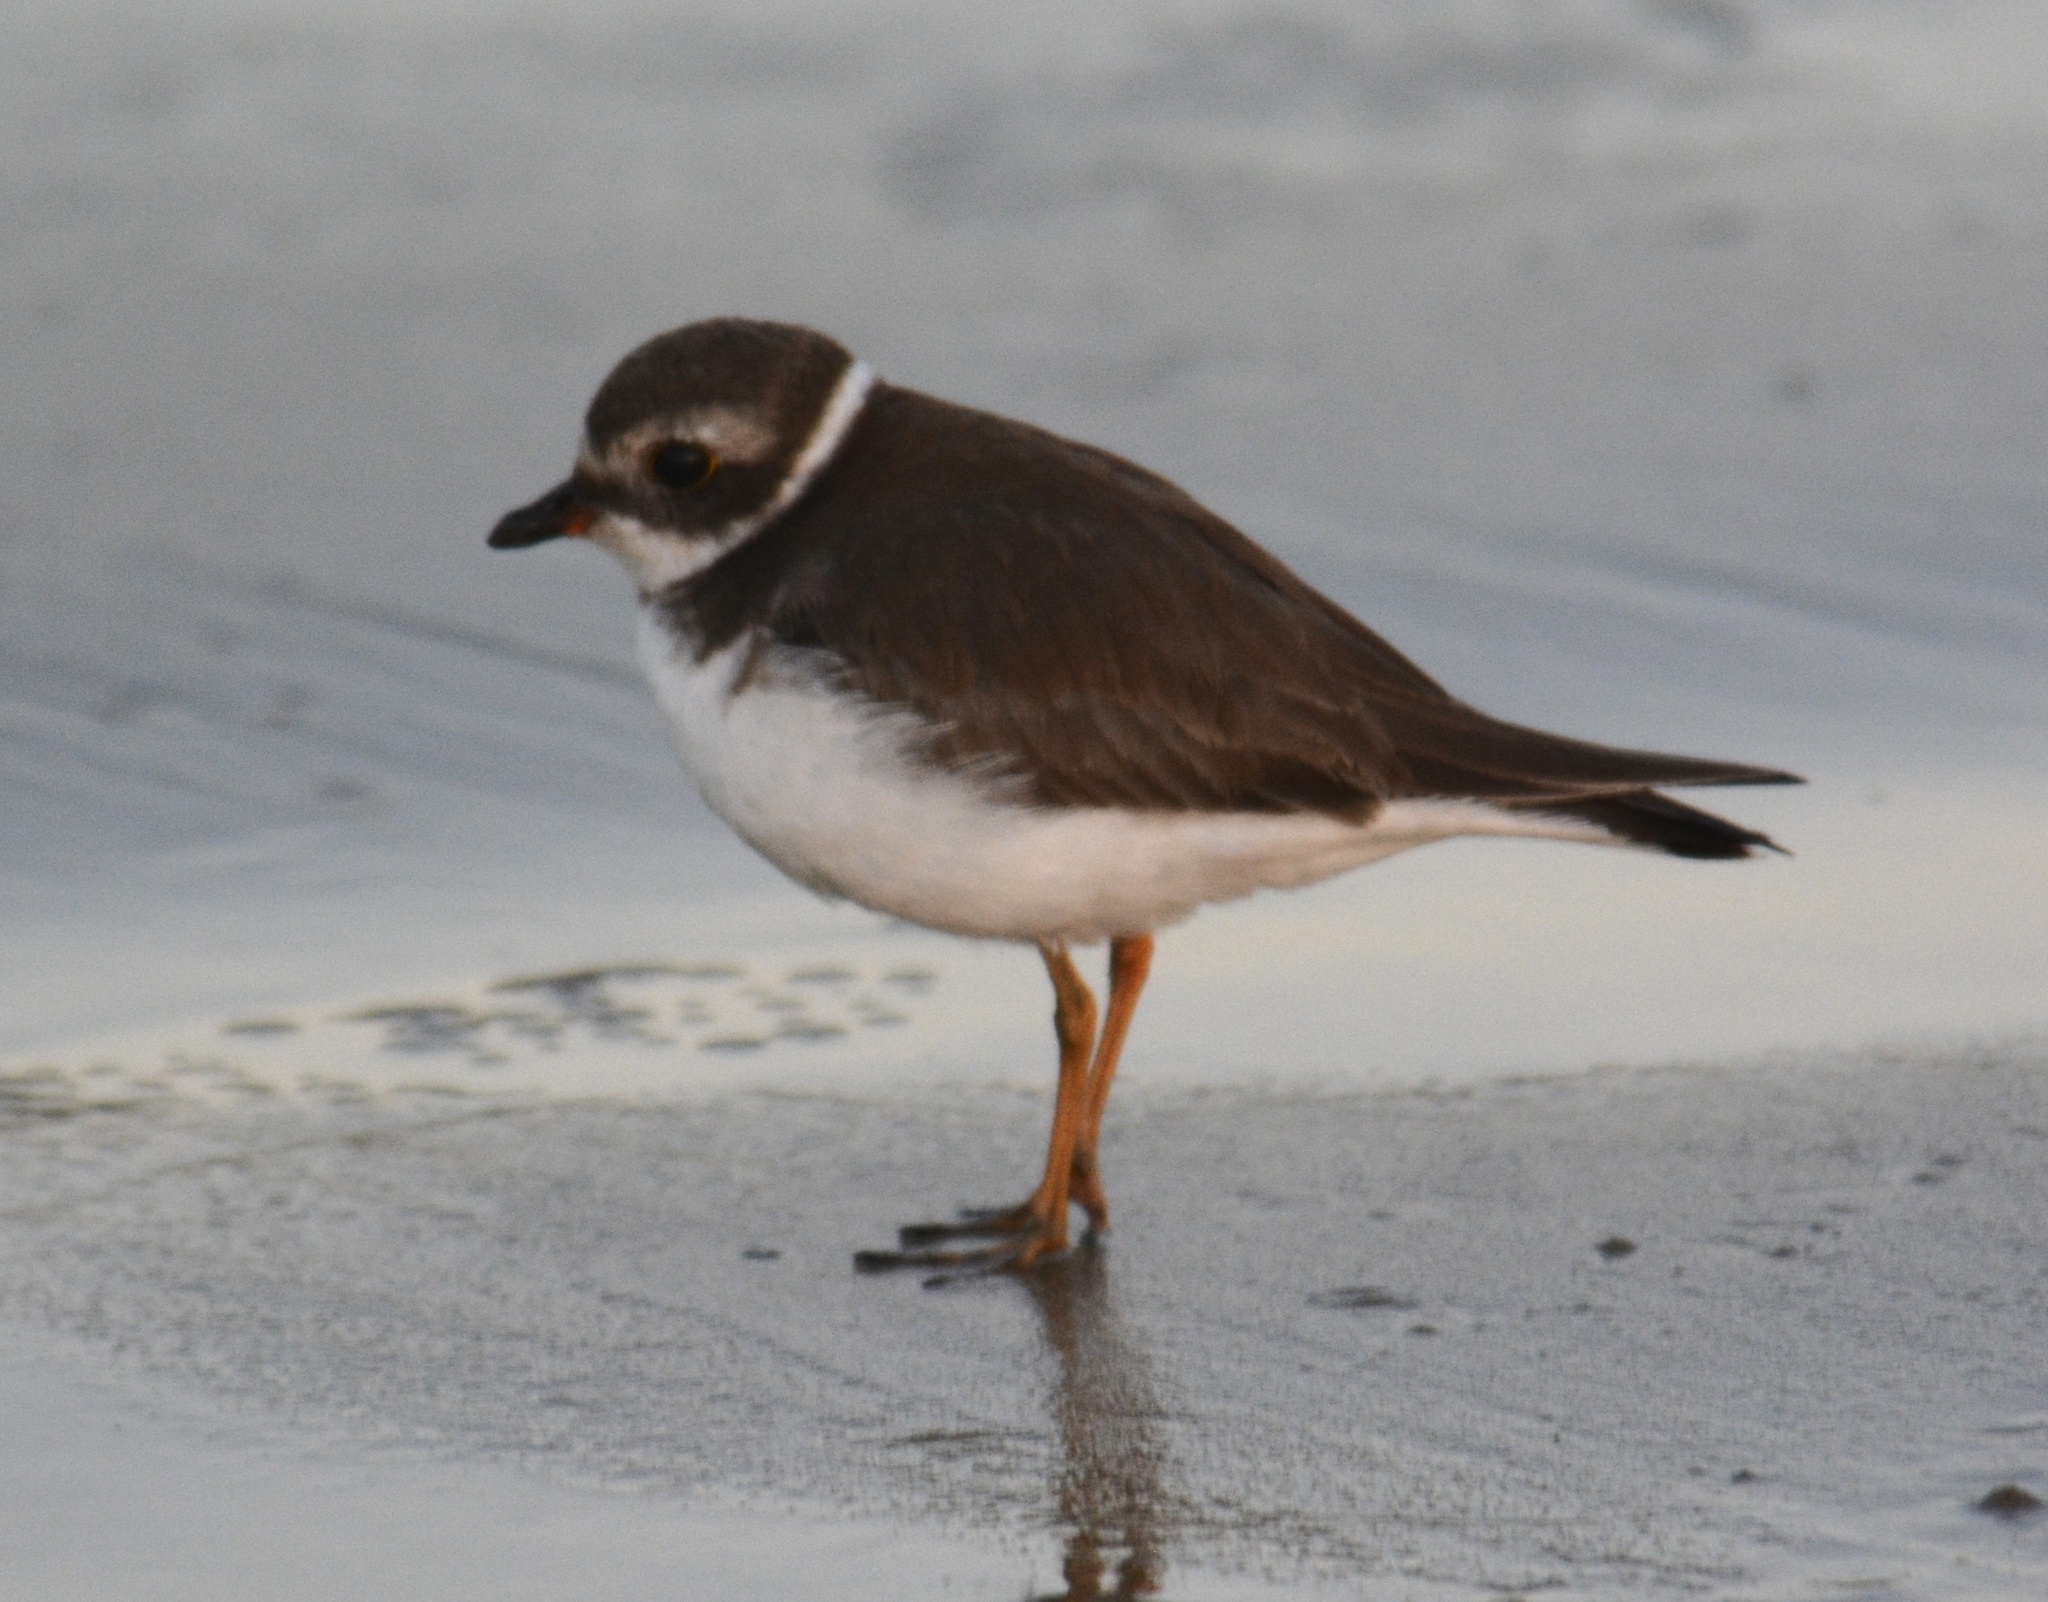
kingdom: Animalia
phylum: Chordata
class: Aves
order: Charadriiformes
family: Charadriidae
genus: Charadrius
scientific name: Charadrius semipalmatus
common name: Semipalmated plover
